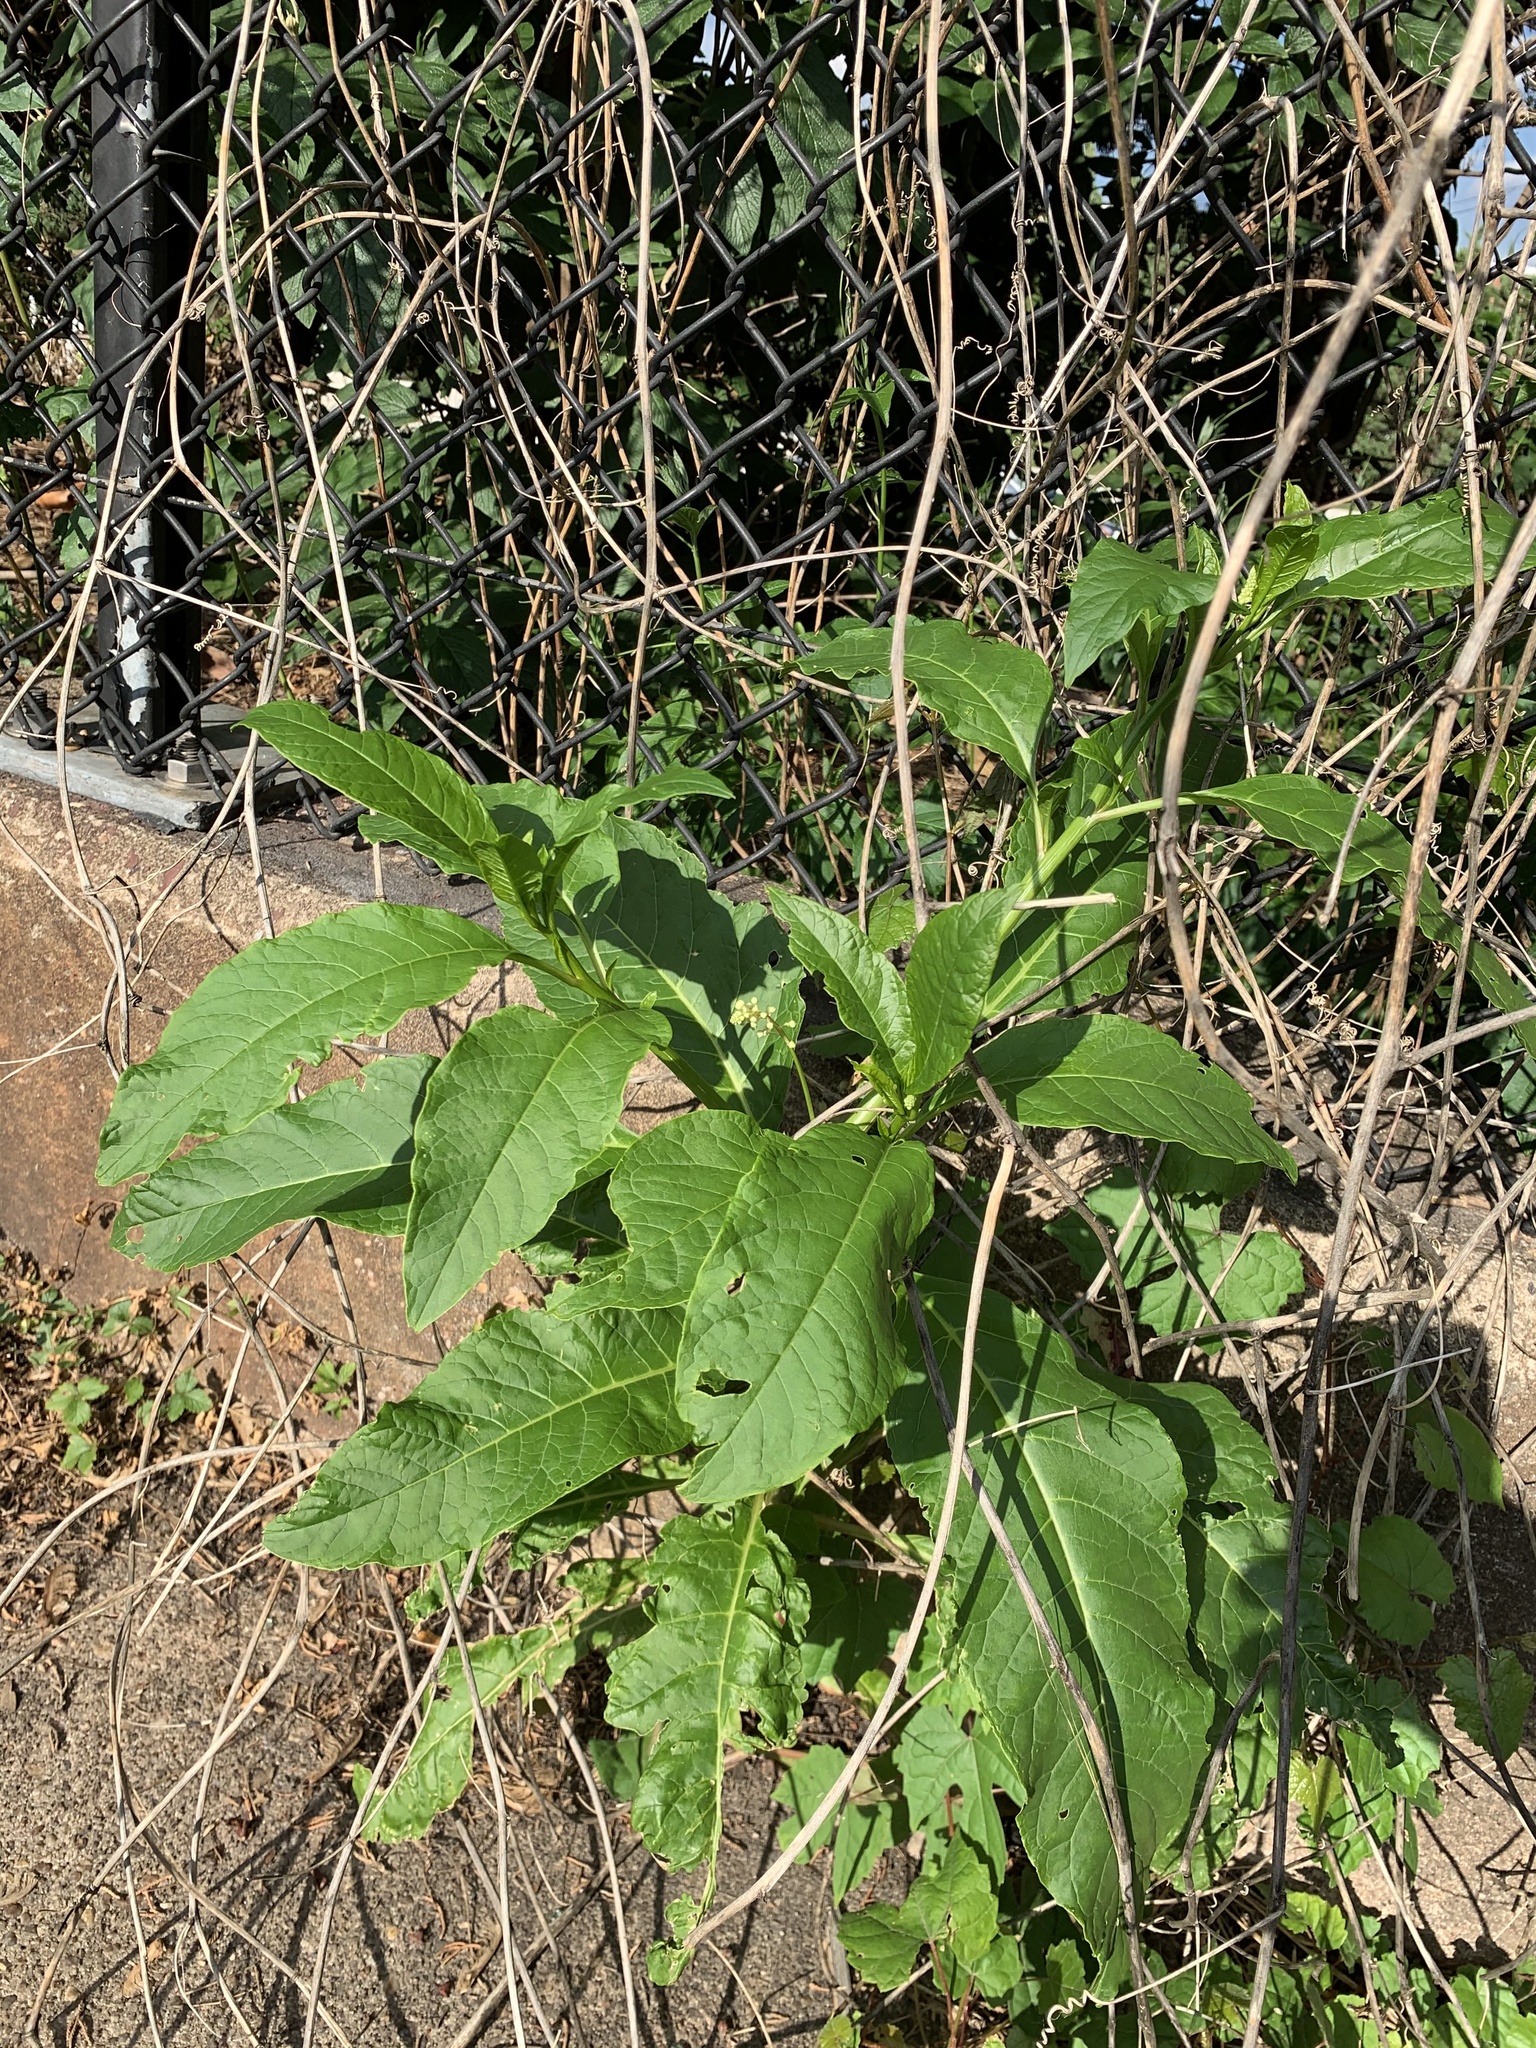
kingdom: Plantae
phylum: Tracheophyta
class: Magnoliopsida
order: Caryophyllales
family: Phytolaccaceae
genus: Phytolacca
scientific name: Phytolacca americana
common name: American pokeweed
